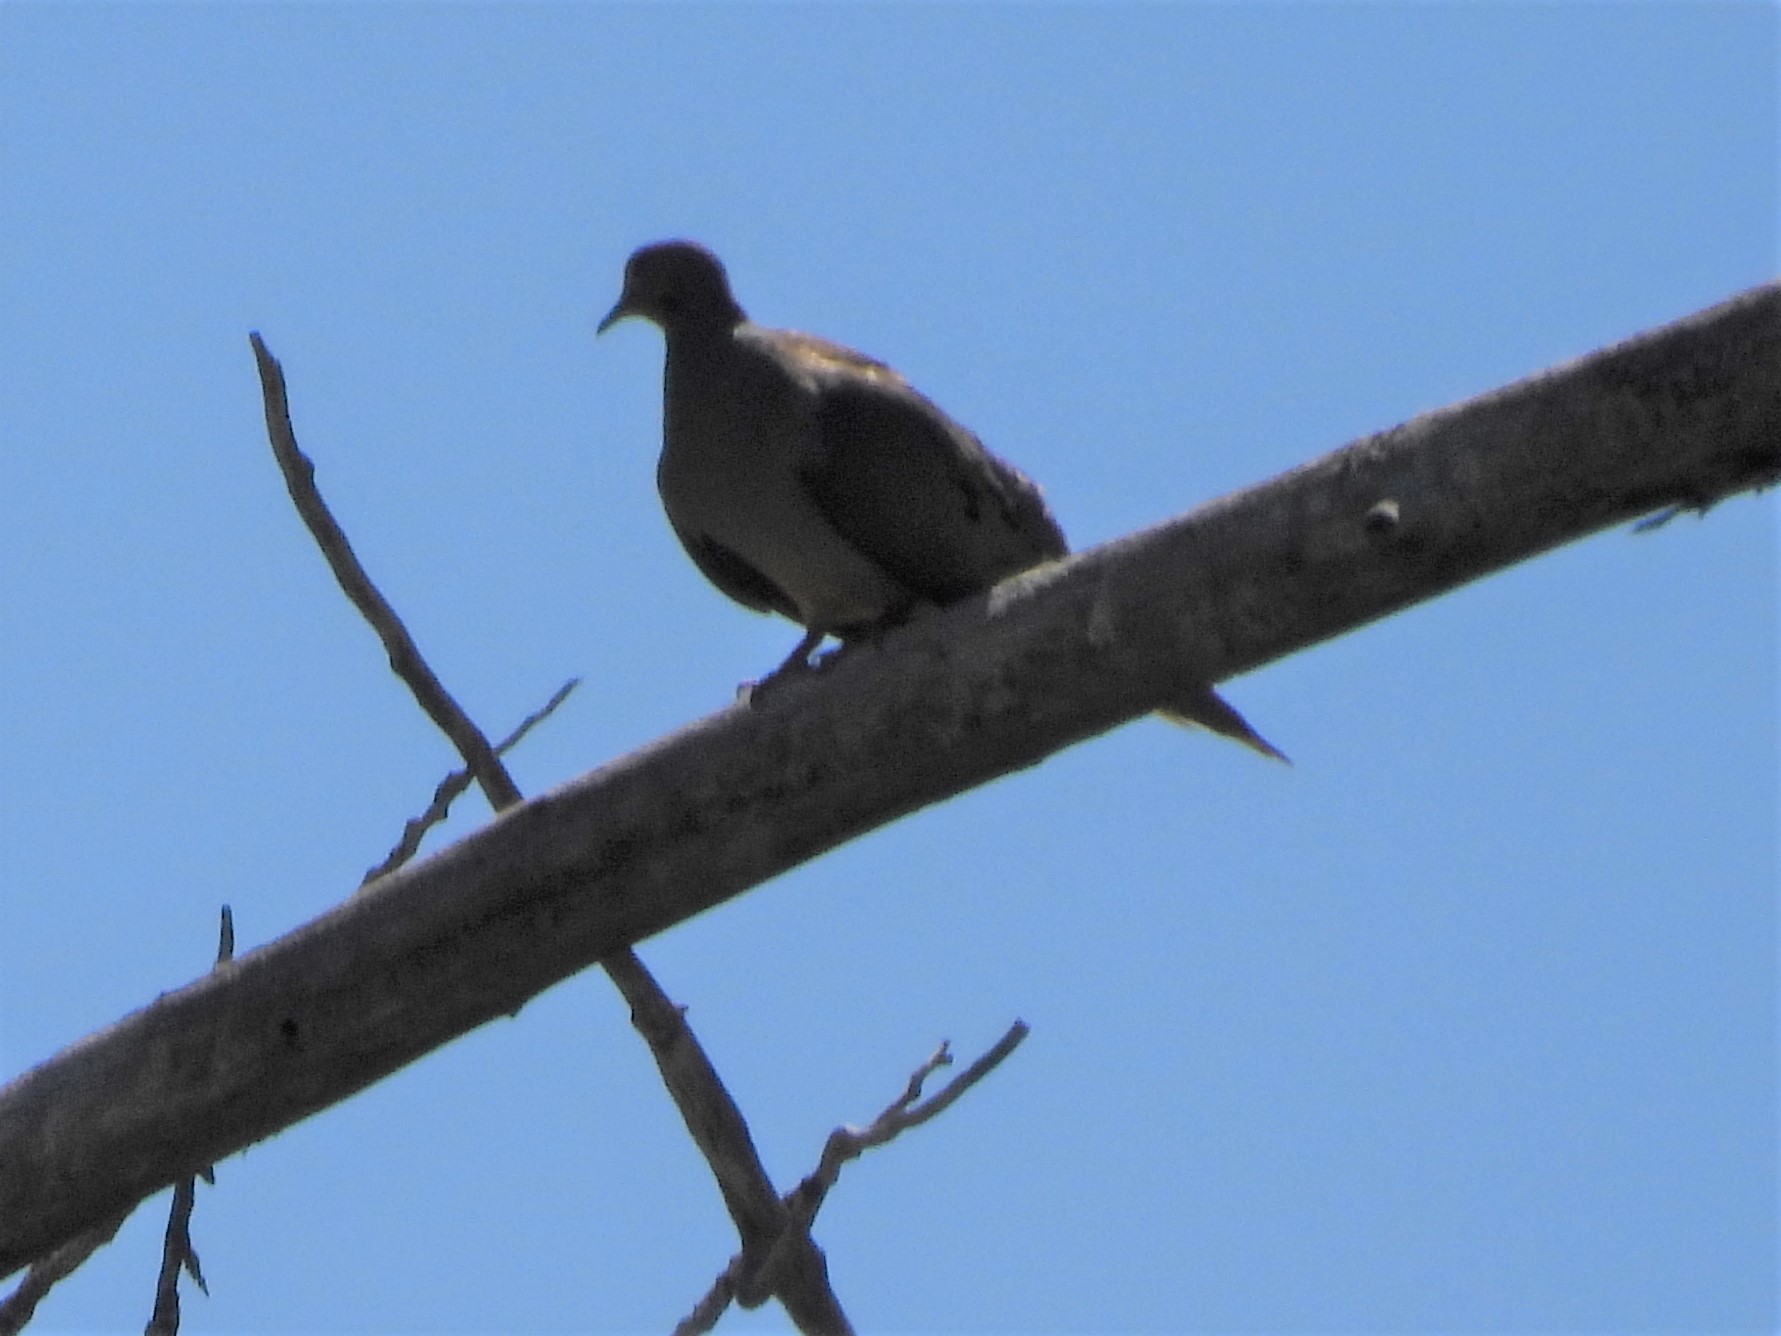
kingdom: Animalia
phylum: Chordata
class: Aves
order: Columbiformes
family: Columbidae
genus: Zenaida
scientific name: Zenaida macroura
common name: Mourning dove
